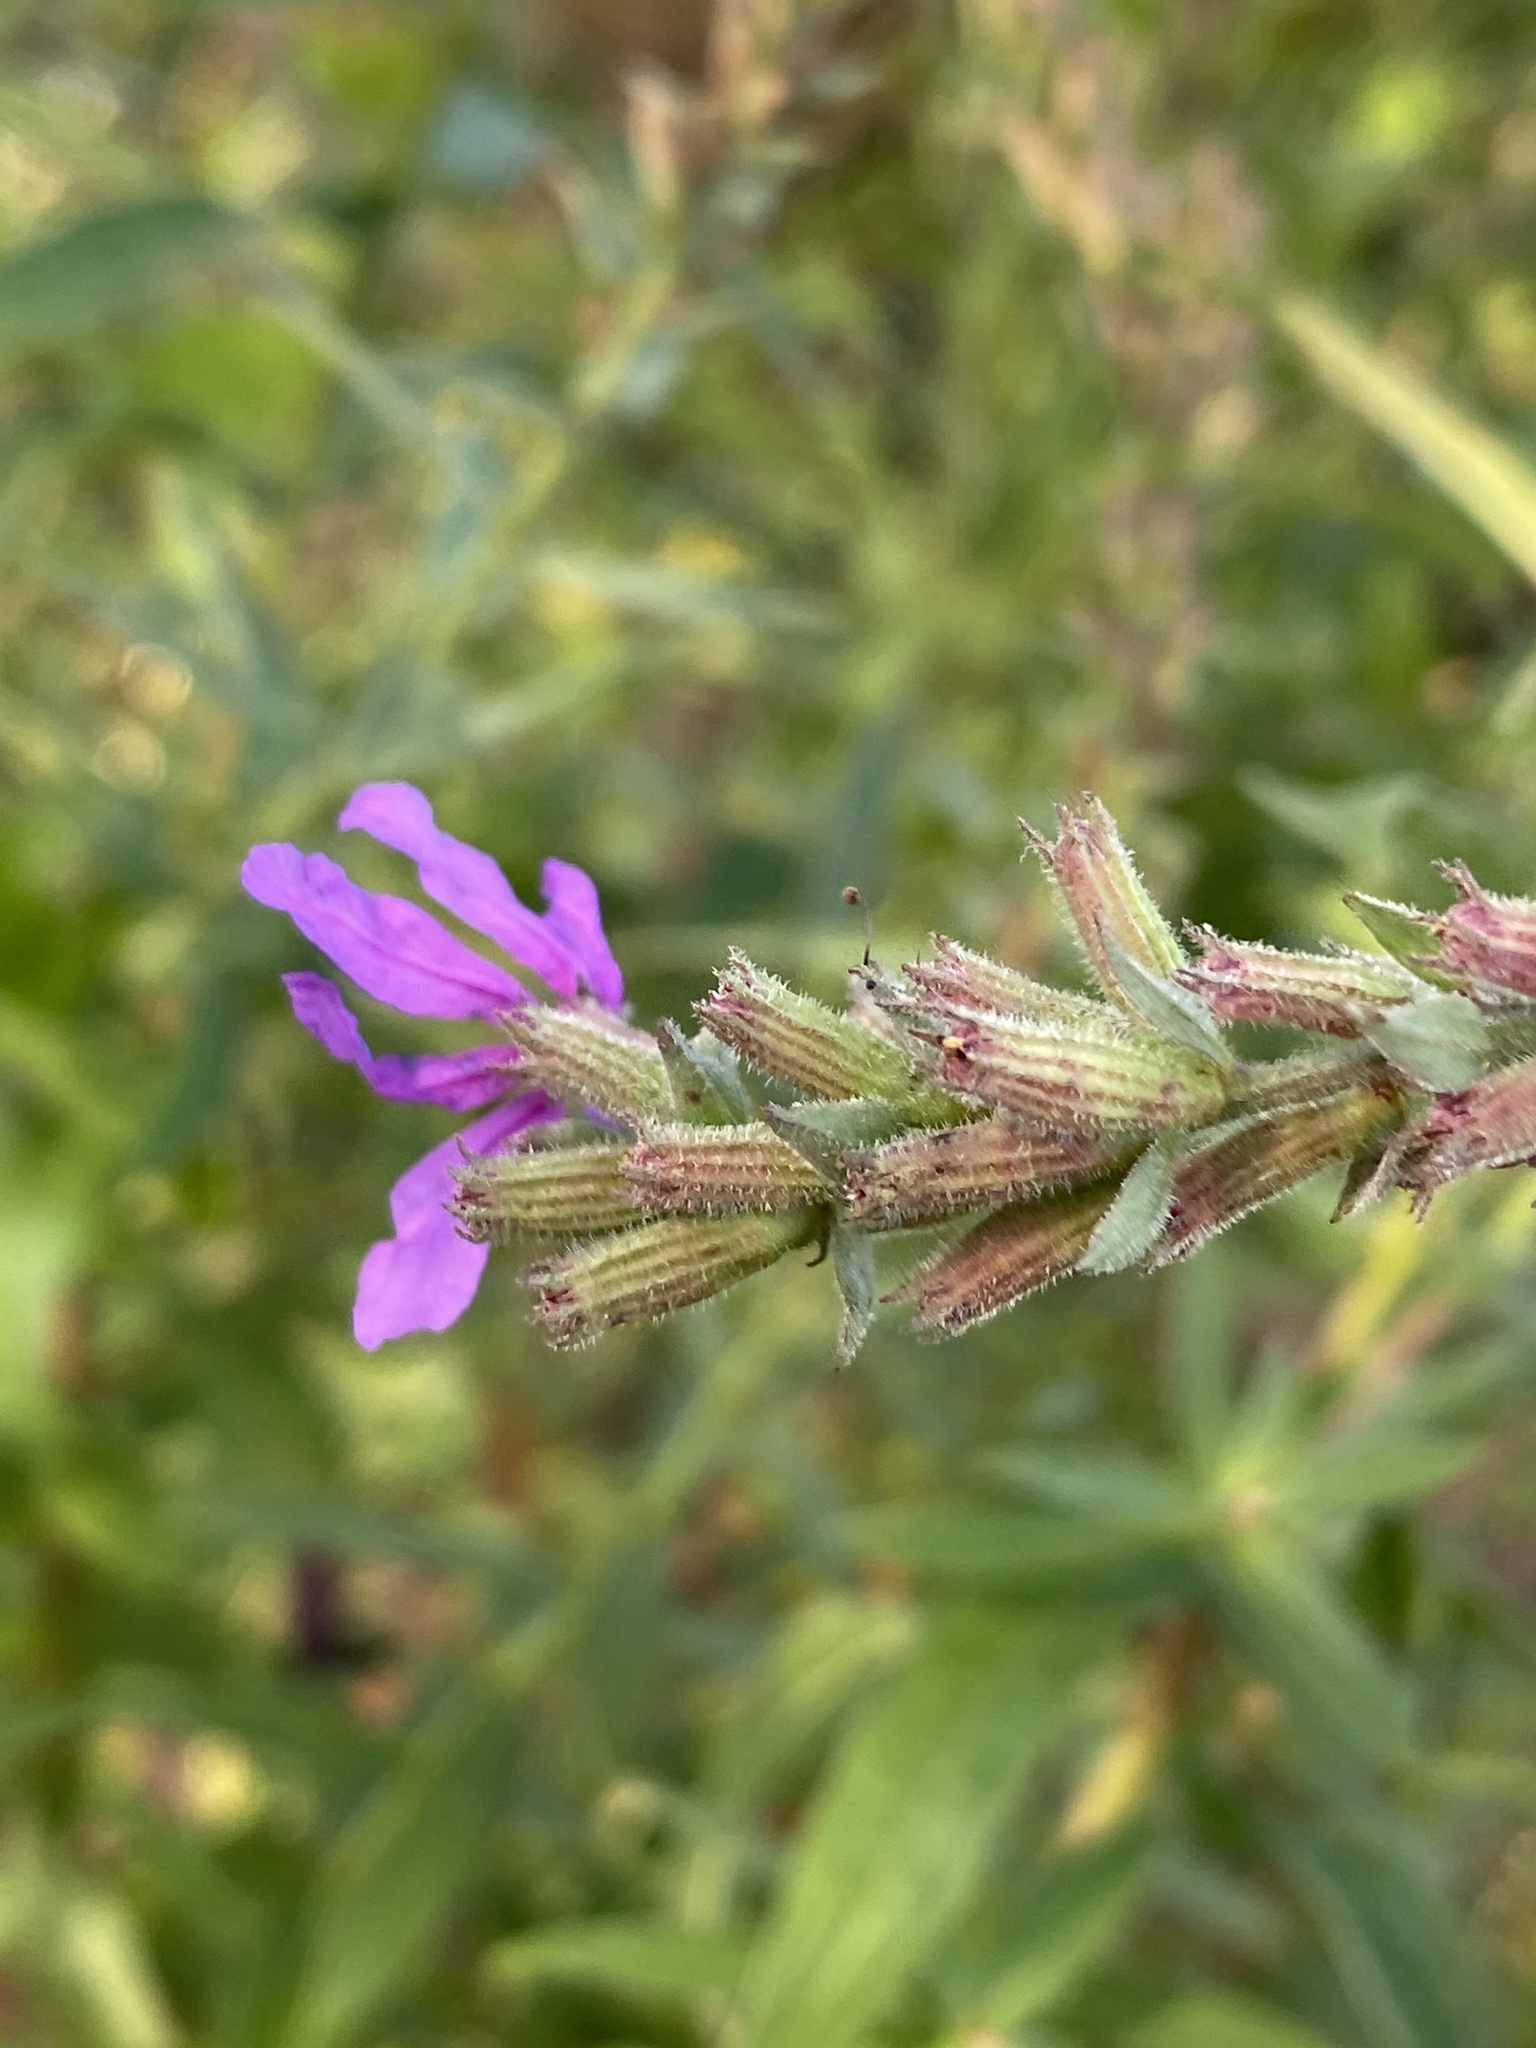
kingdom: Plantae
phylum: Tracheophyta
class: Magnoliopsida
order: Myrtales
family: Lythraceae
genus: Lythrum
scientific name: Lythrum salicaria
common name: Purple loosestrife
